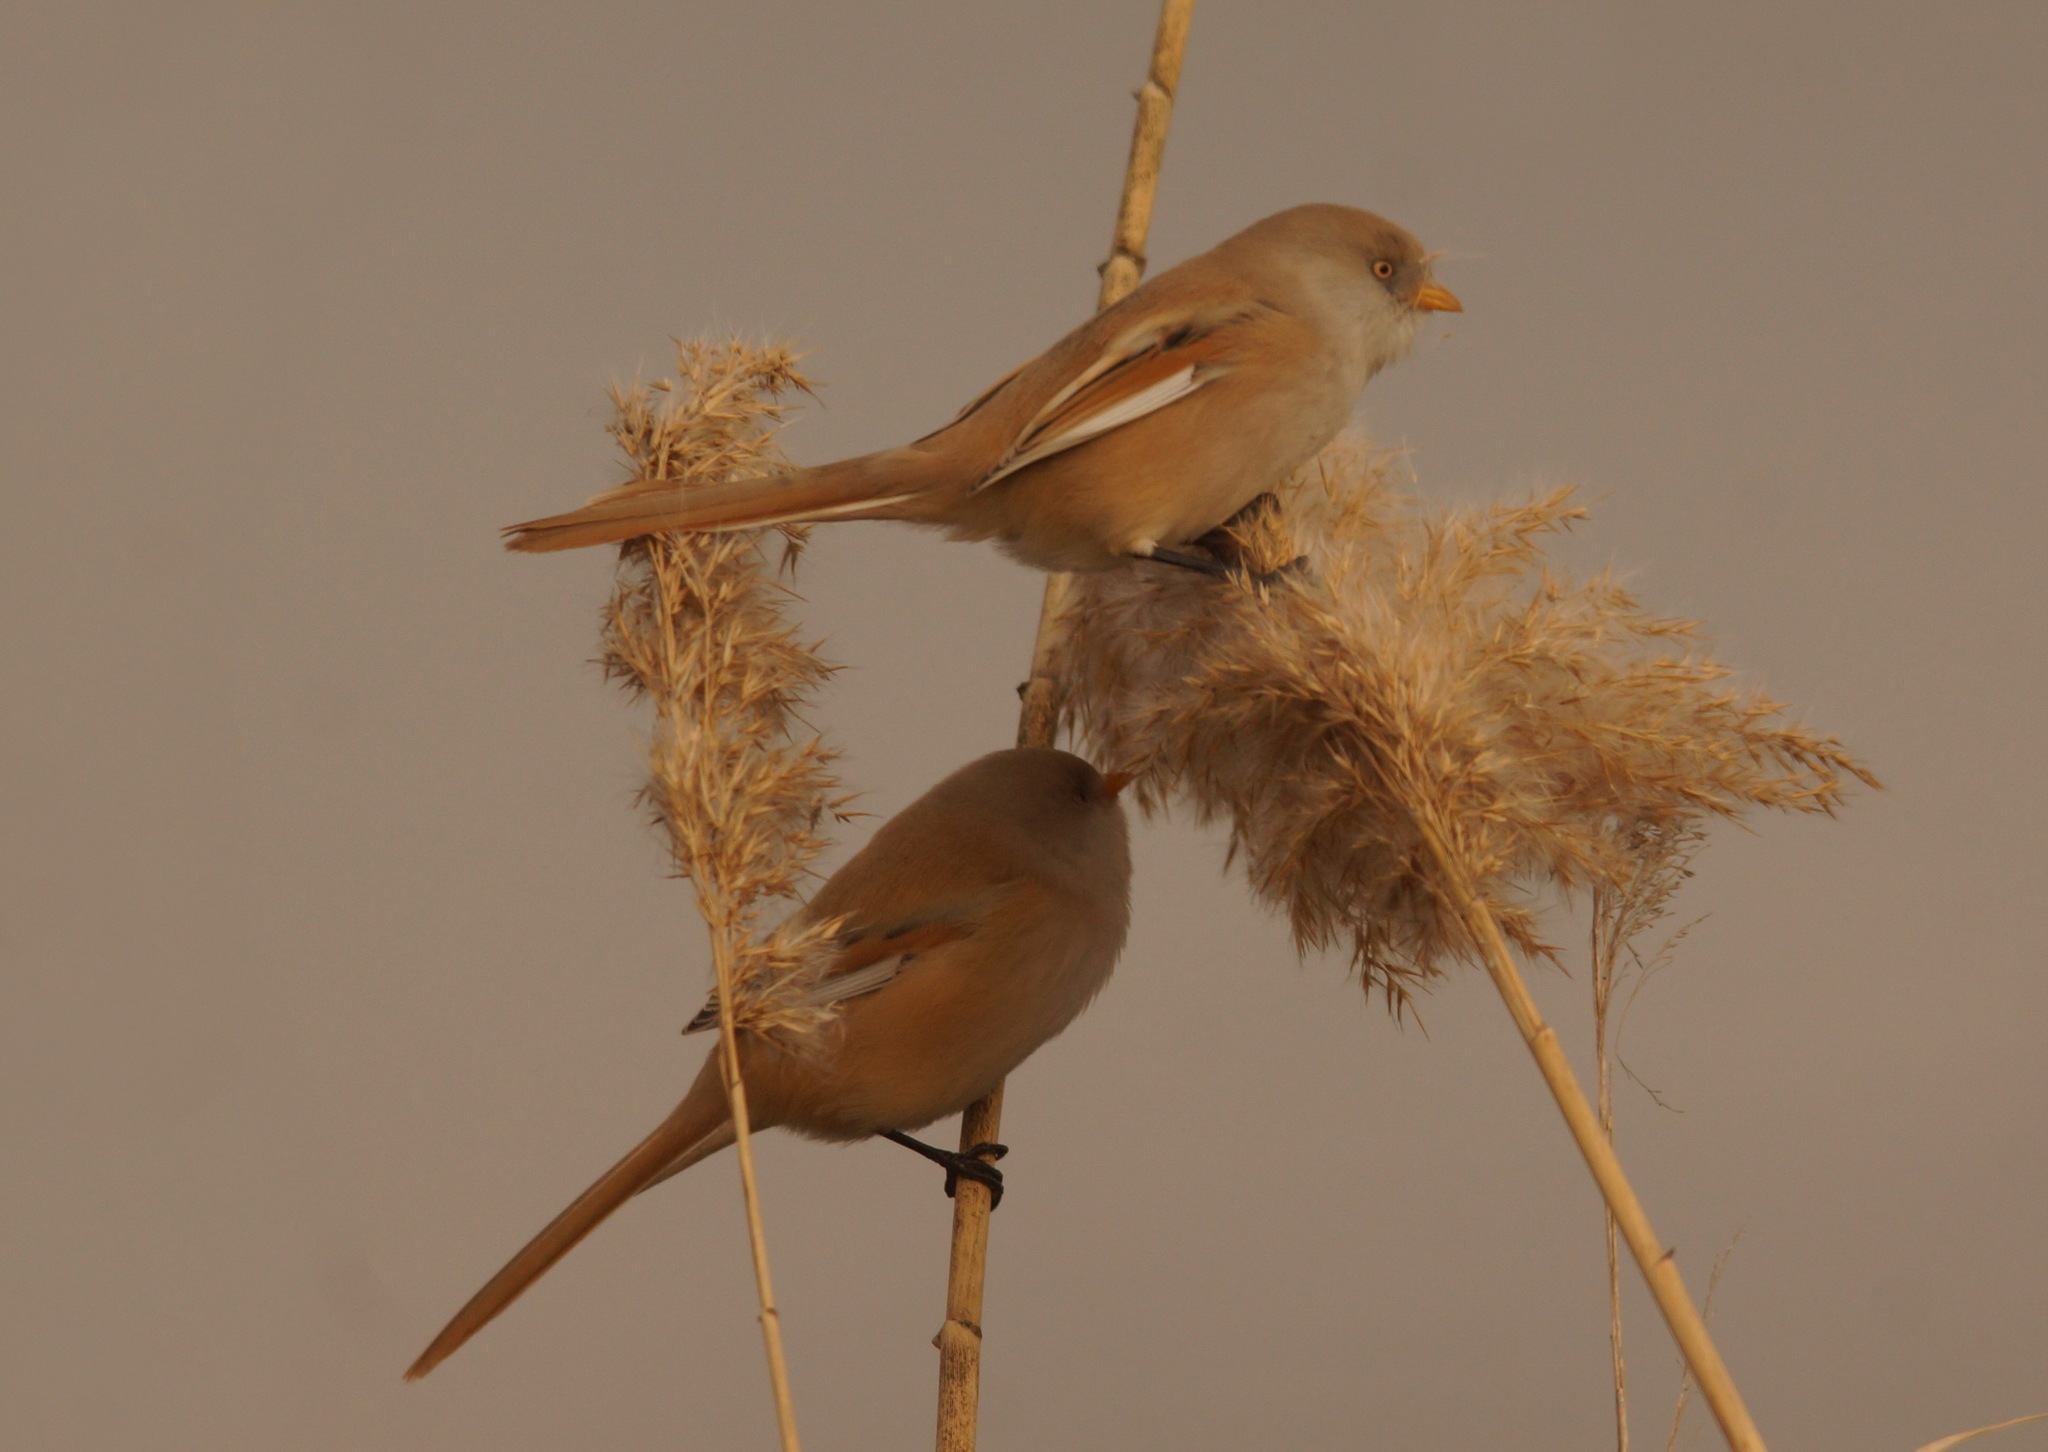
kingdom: Animalia
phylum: Chordata
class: Aves
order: Passeriformes
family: Panuridae
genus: Panurus
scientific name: Panurus biarmicus
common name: Bearded reedling
